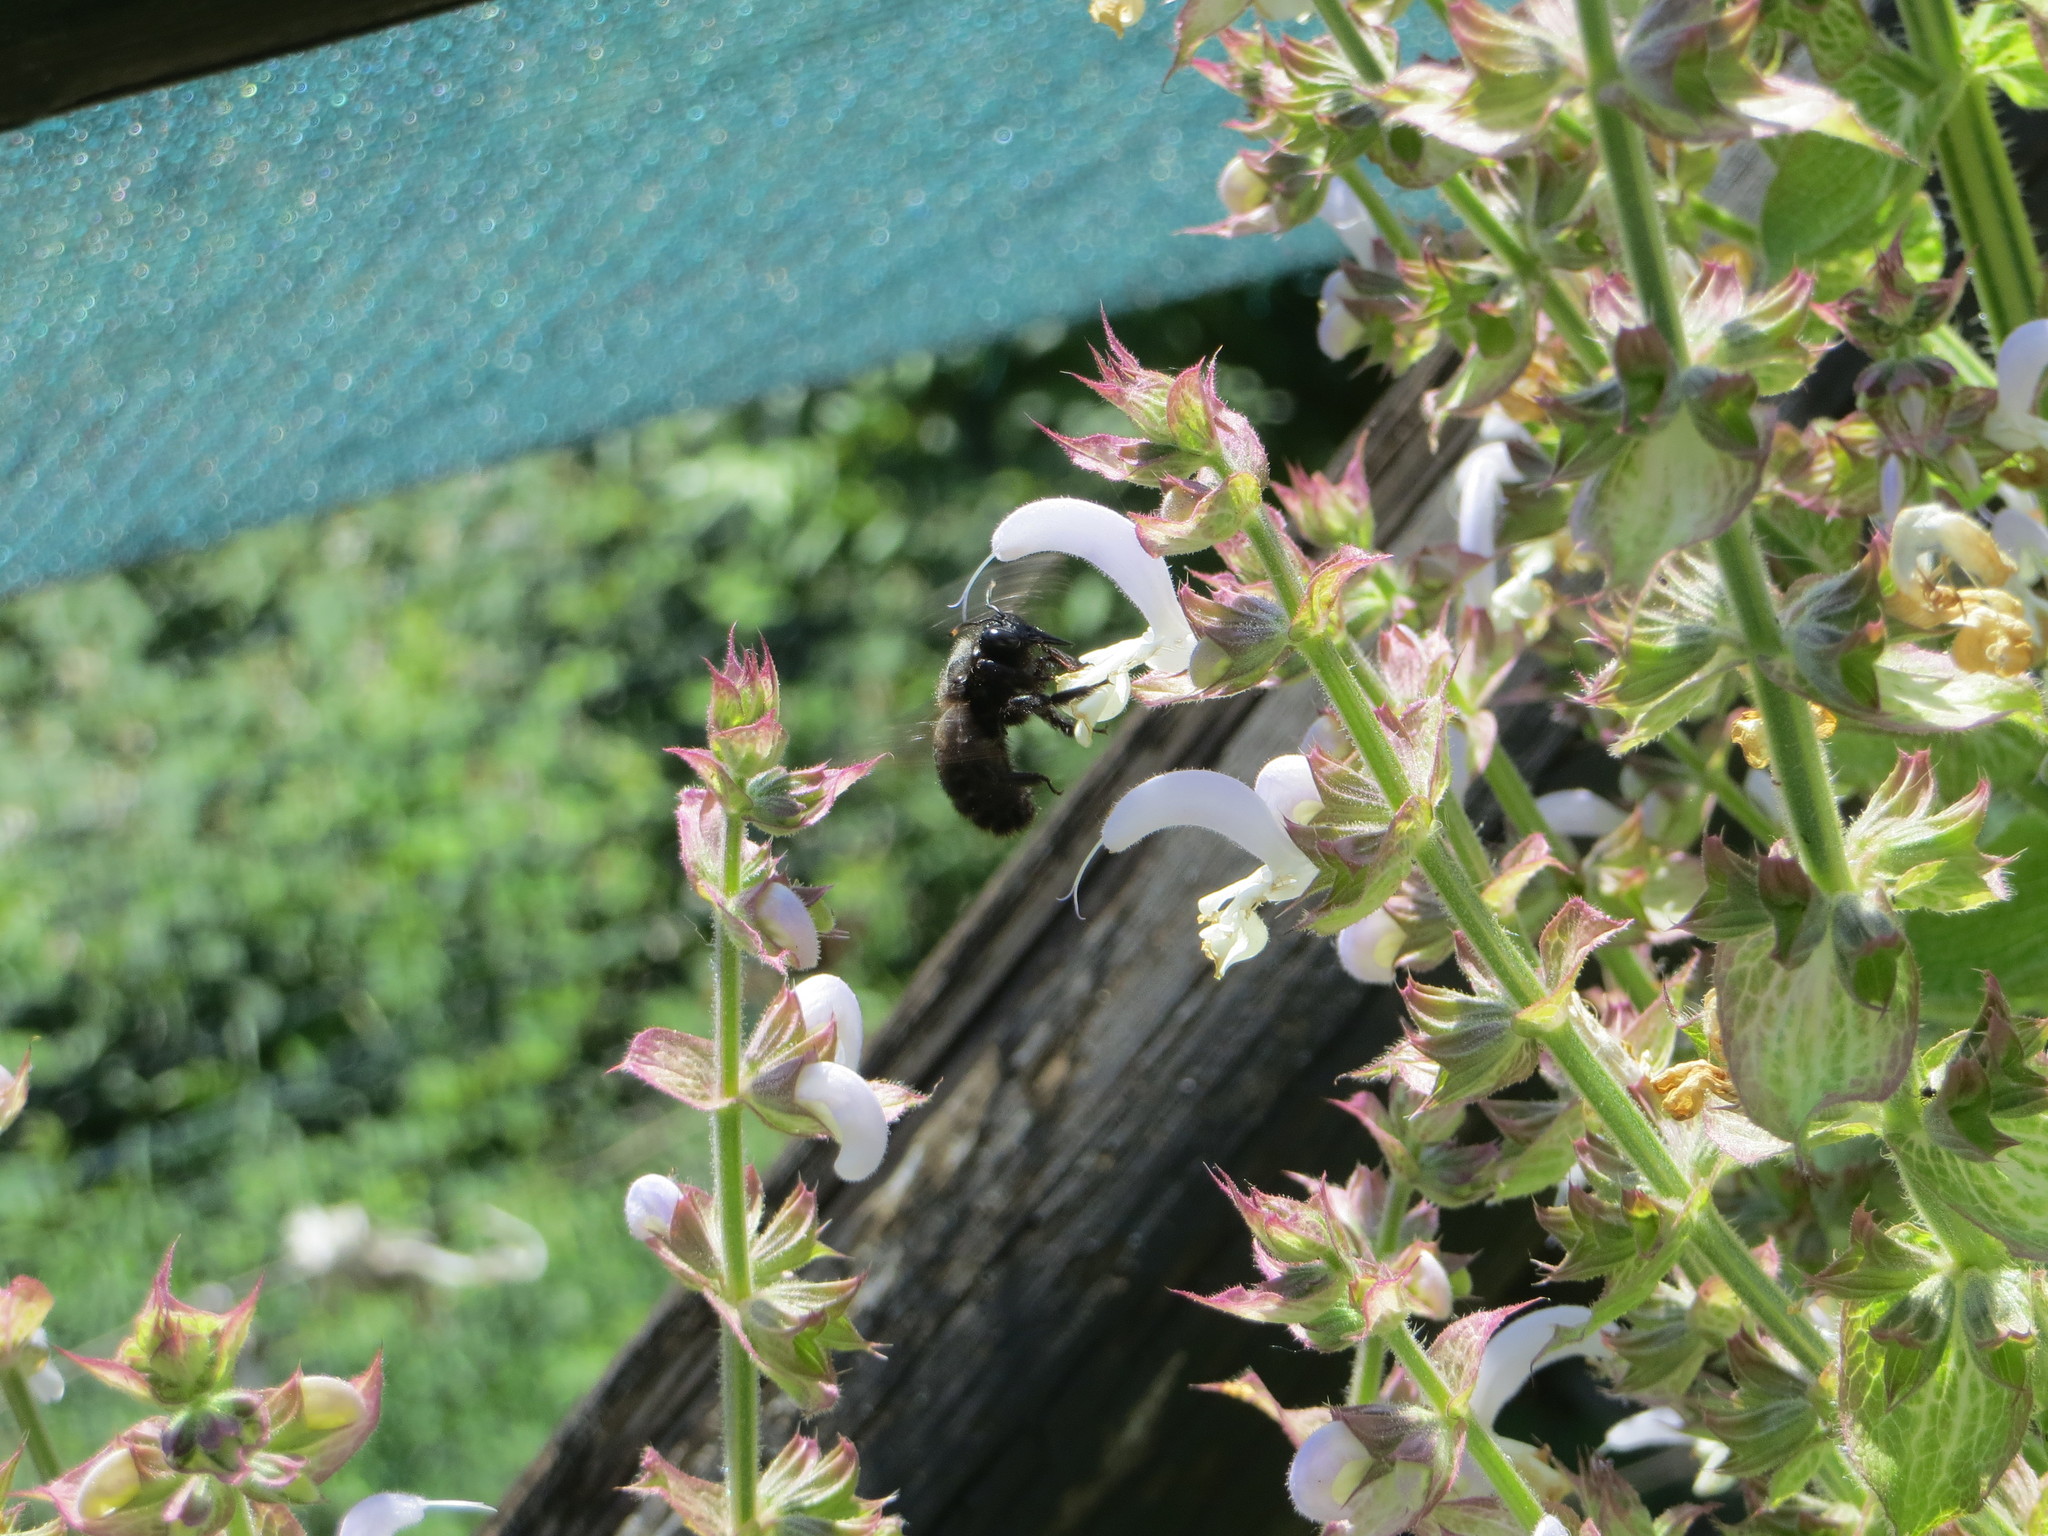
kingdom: Animalia
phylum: Arthropoda
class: Insecta
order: Hymenoptera
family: Apidae
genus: Xylocopa
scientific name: Xylocopa violacea
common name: Violet carpenter bee
